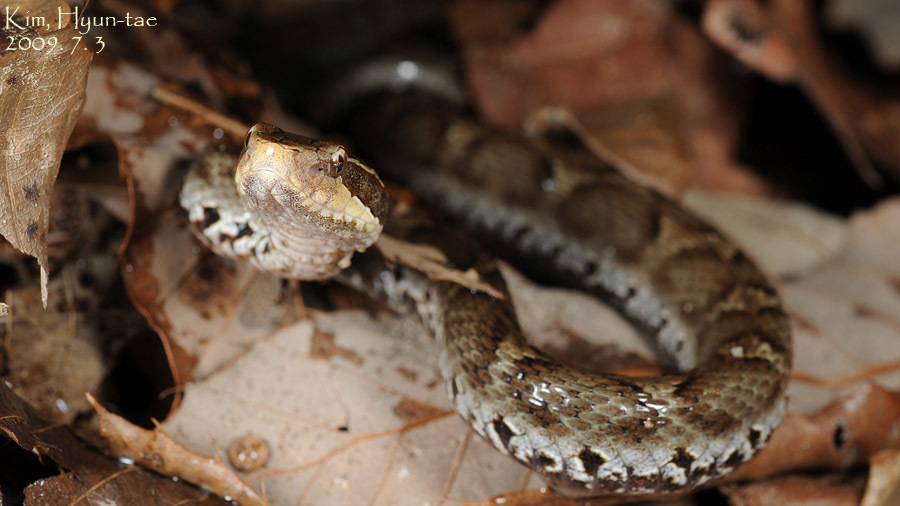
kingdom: Animalia
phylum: Chordata
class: Squamata
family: Viperidae
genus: Gloydius
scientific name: Gloydius ussuriensis
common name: Ussuri mamushi
